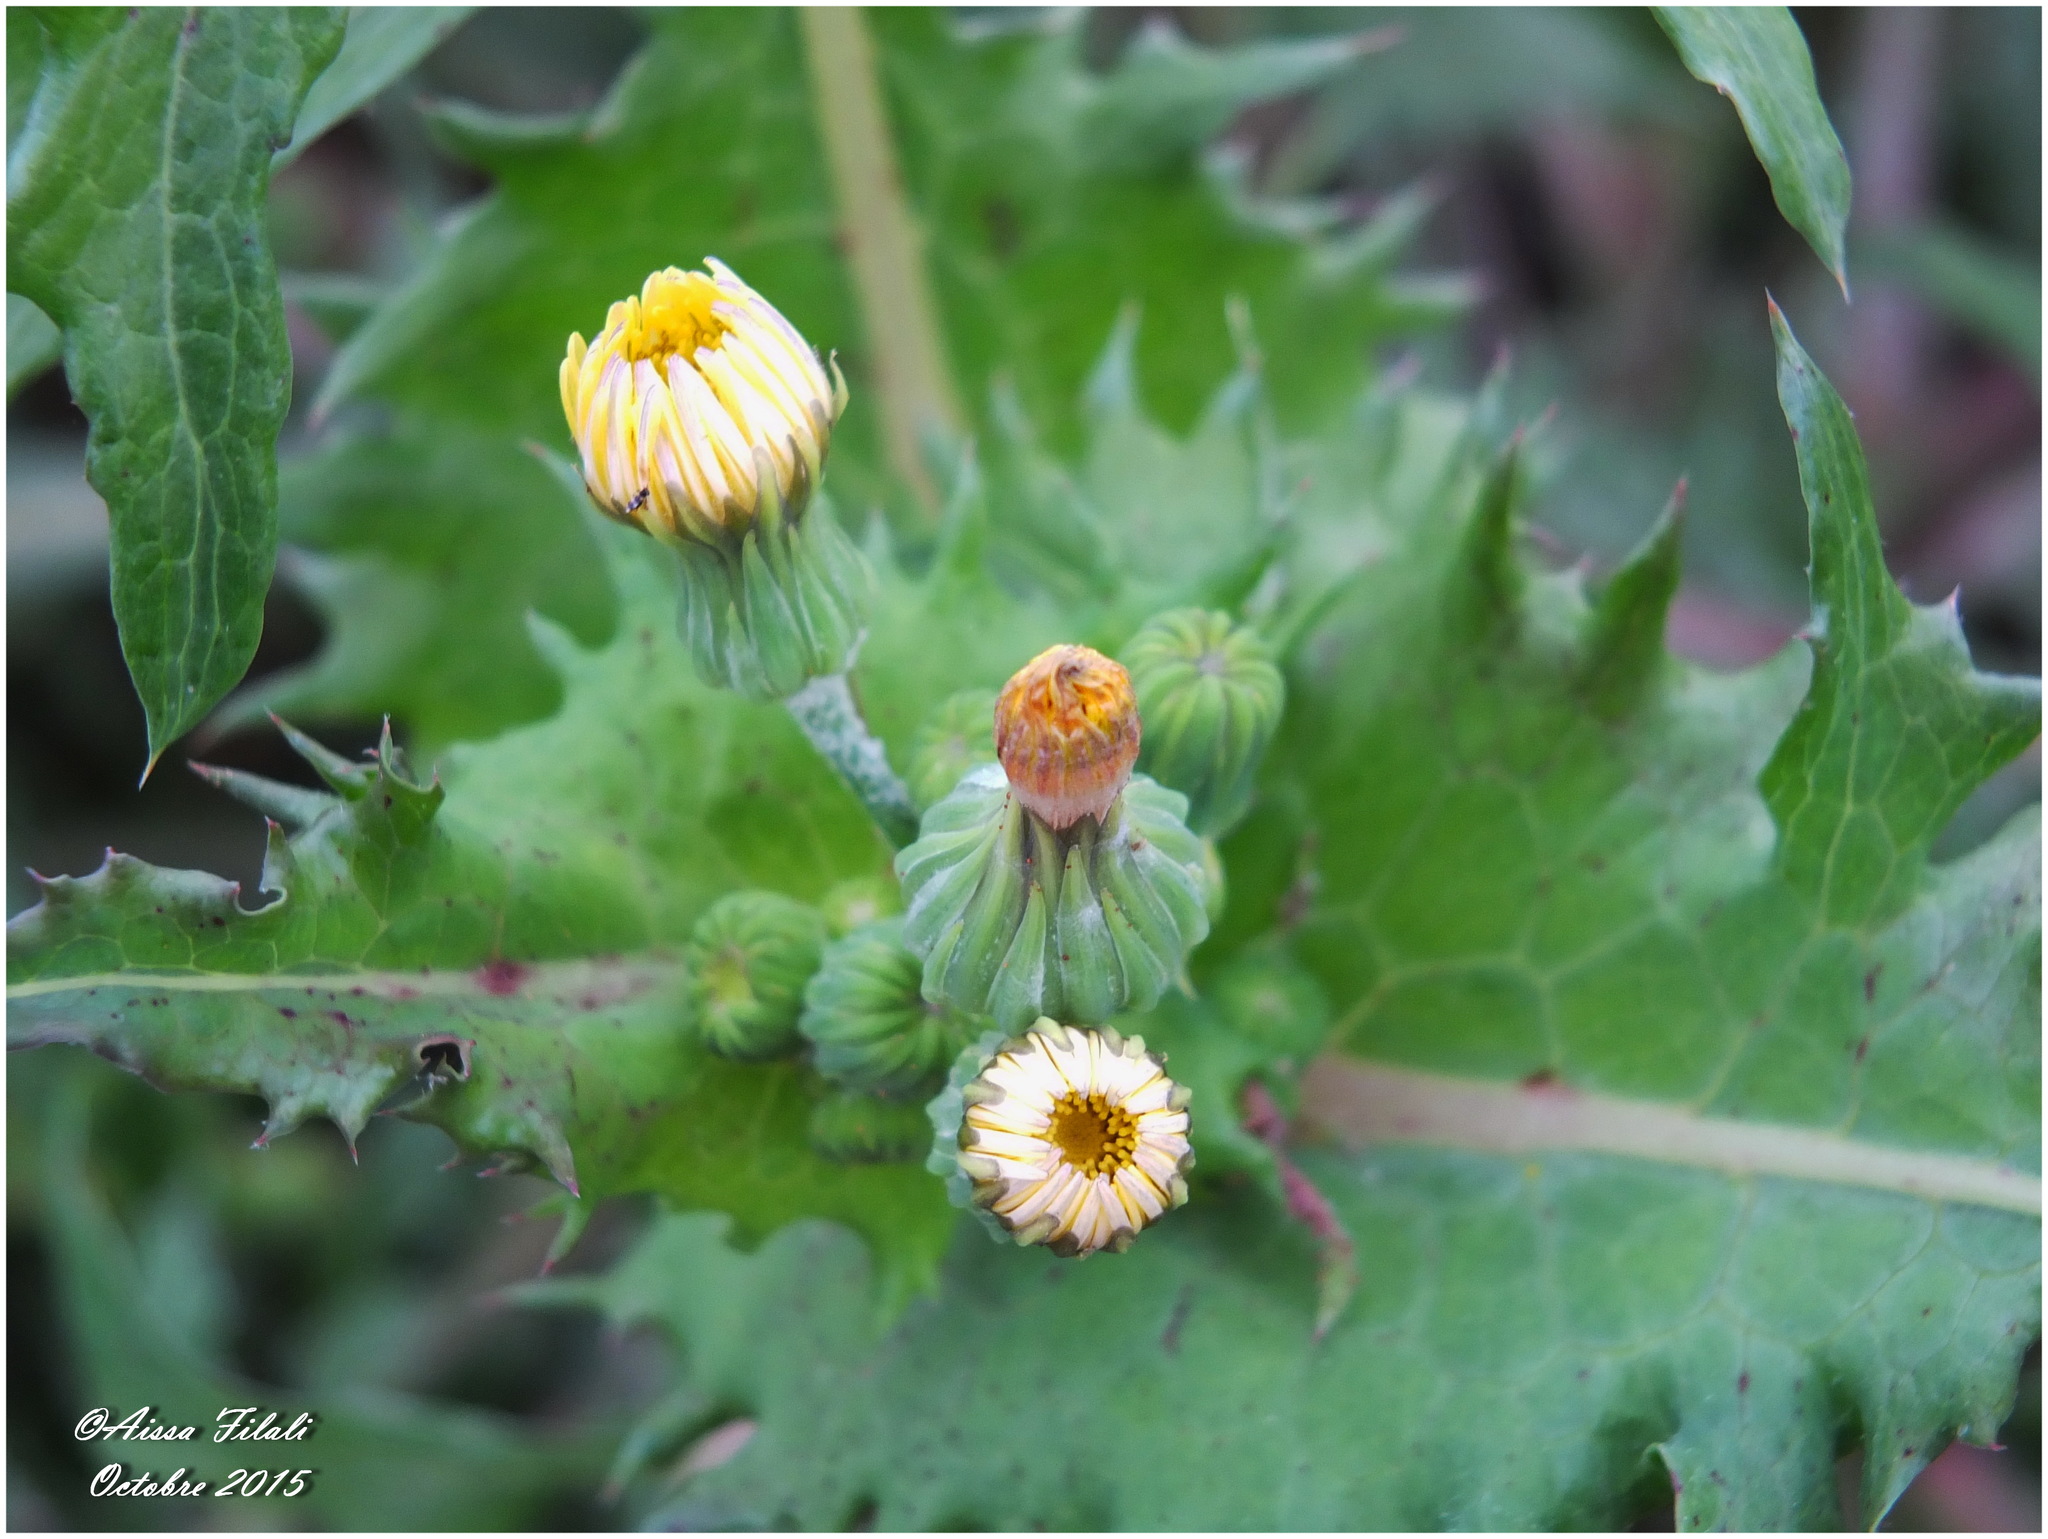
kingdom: Plantae
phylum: Tracheophyta
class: Magnoliopsida
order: Asterales
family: Asteraceae
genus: Sonchus
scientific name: Sonchus asper
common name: Prickly sow-thistle
